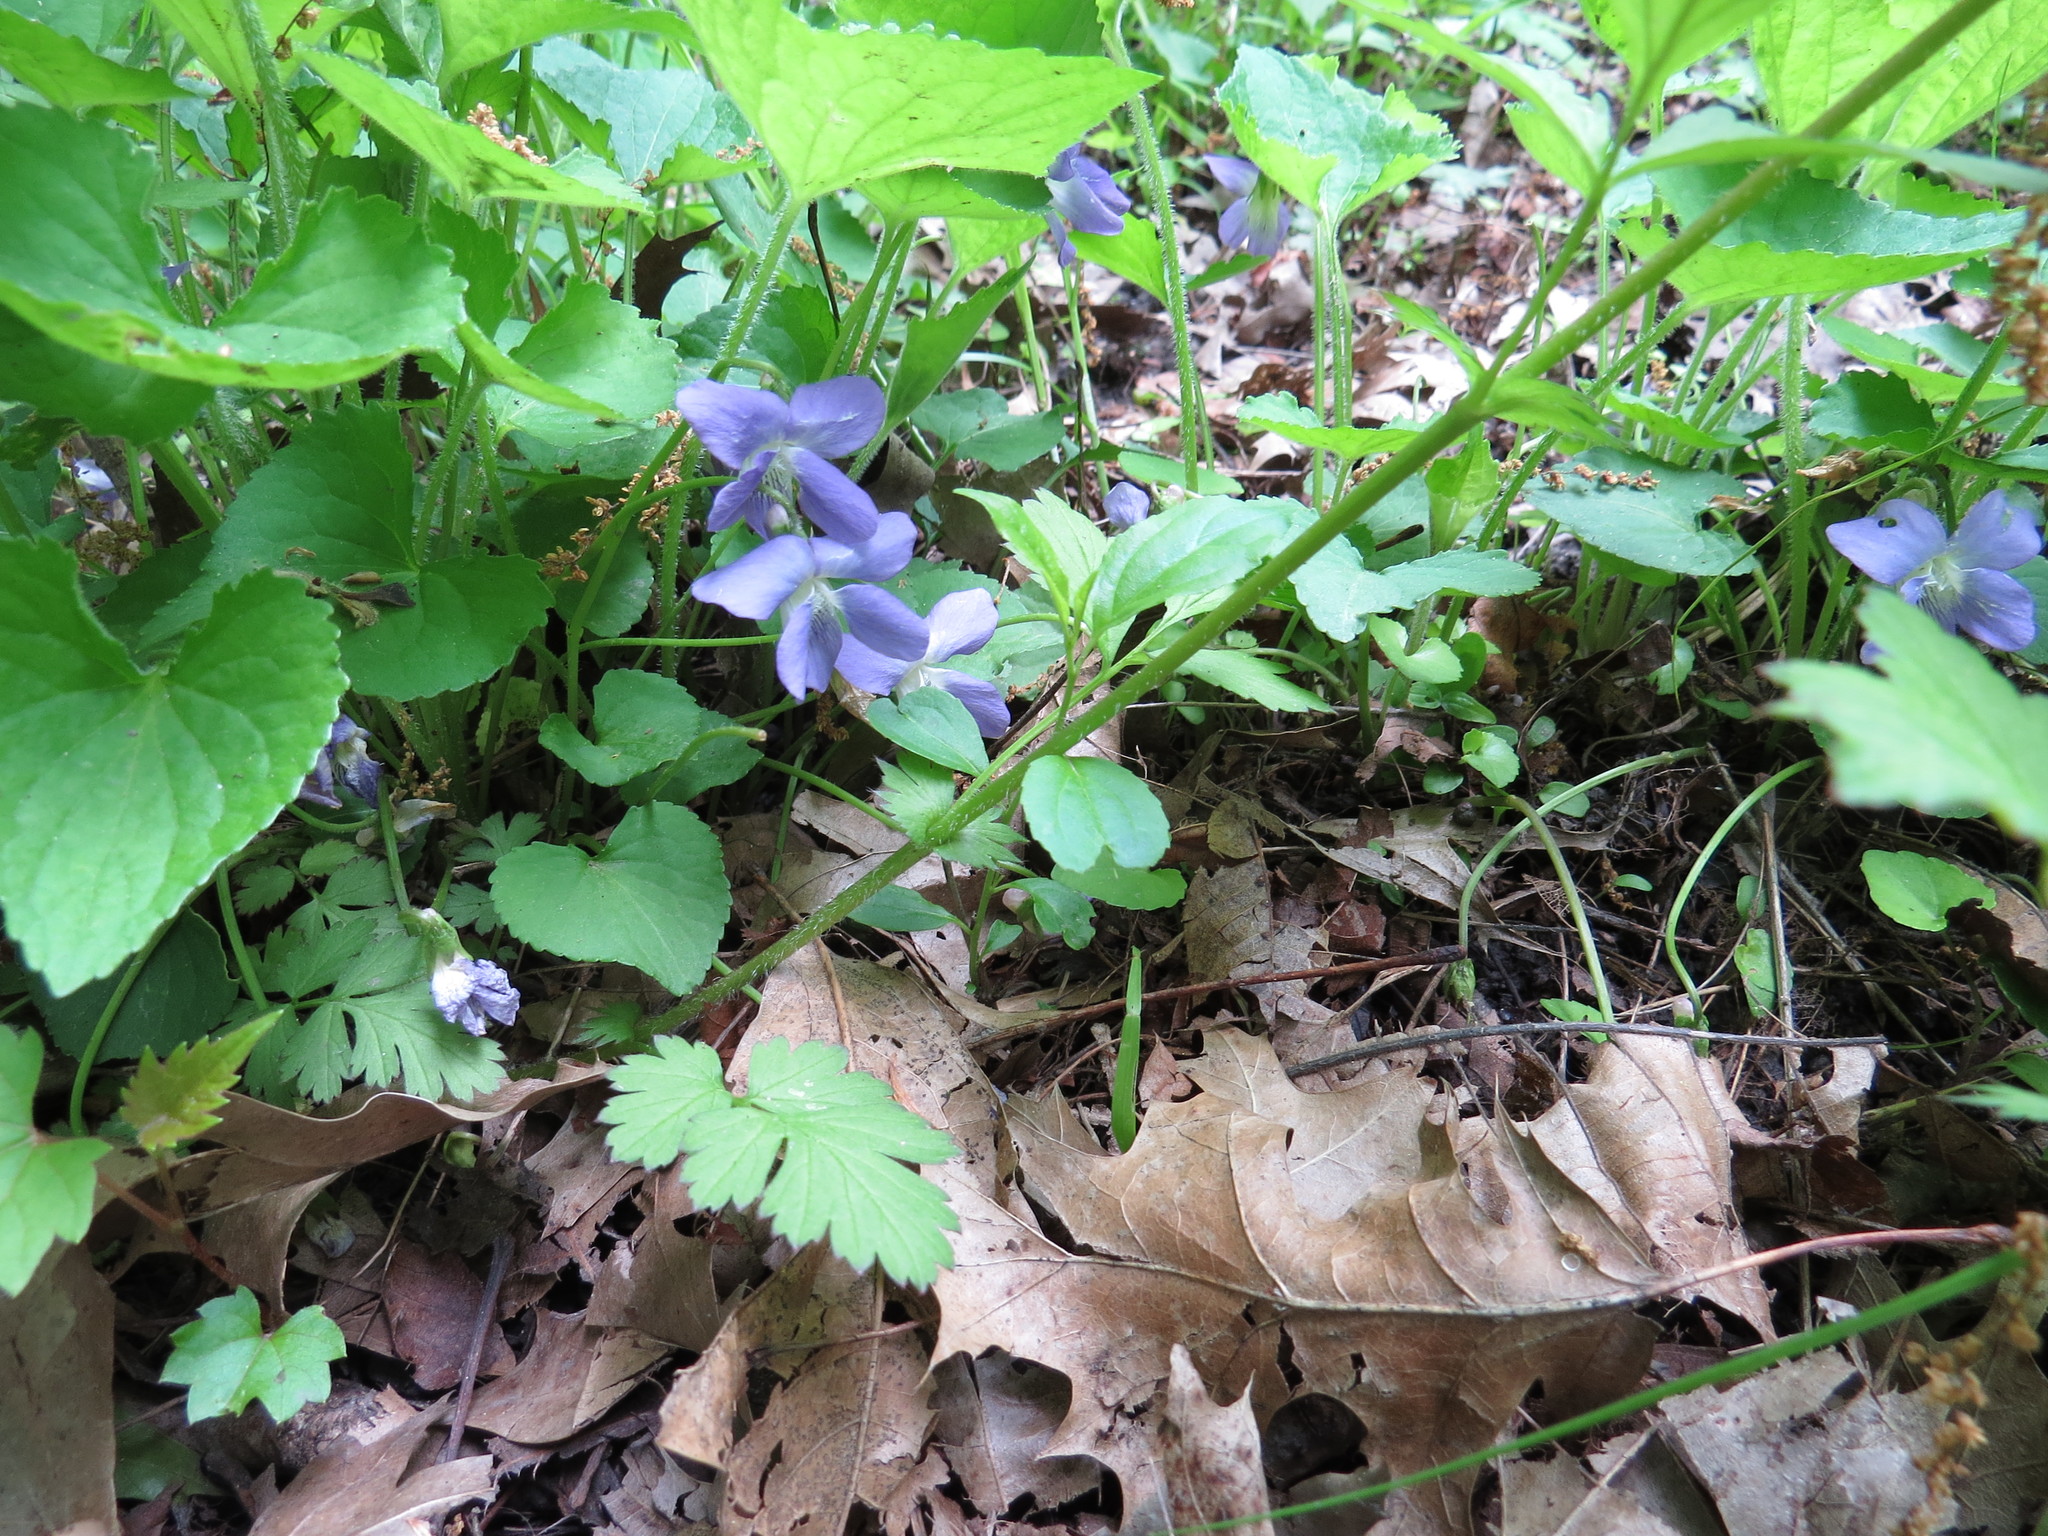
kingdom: Plantae
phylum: Tracheophyta
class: Magnoliopsida
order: Malpighiales
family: Violaceae
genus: Viola
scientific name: Viola sororia
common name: Dooryard violet
